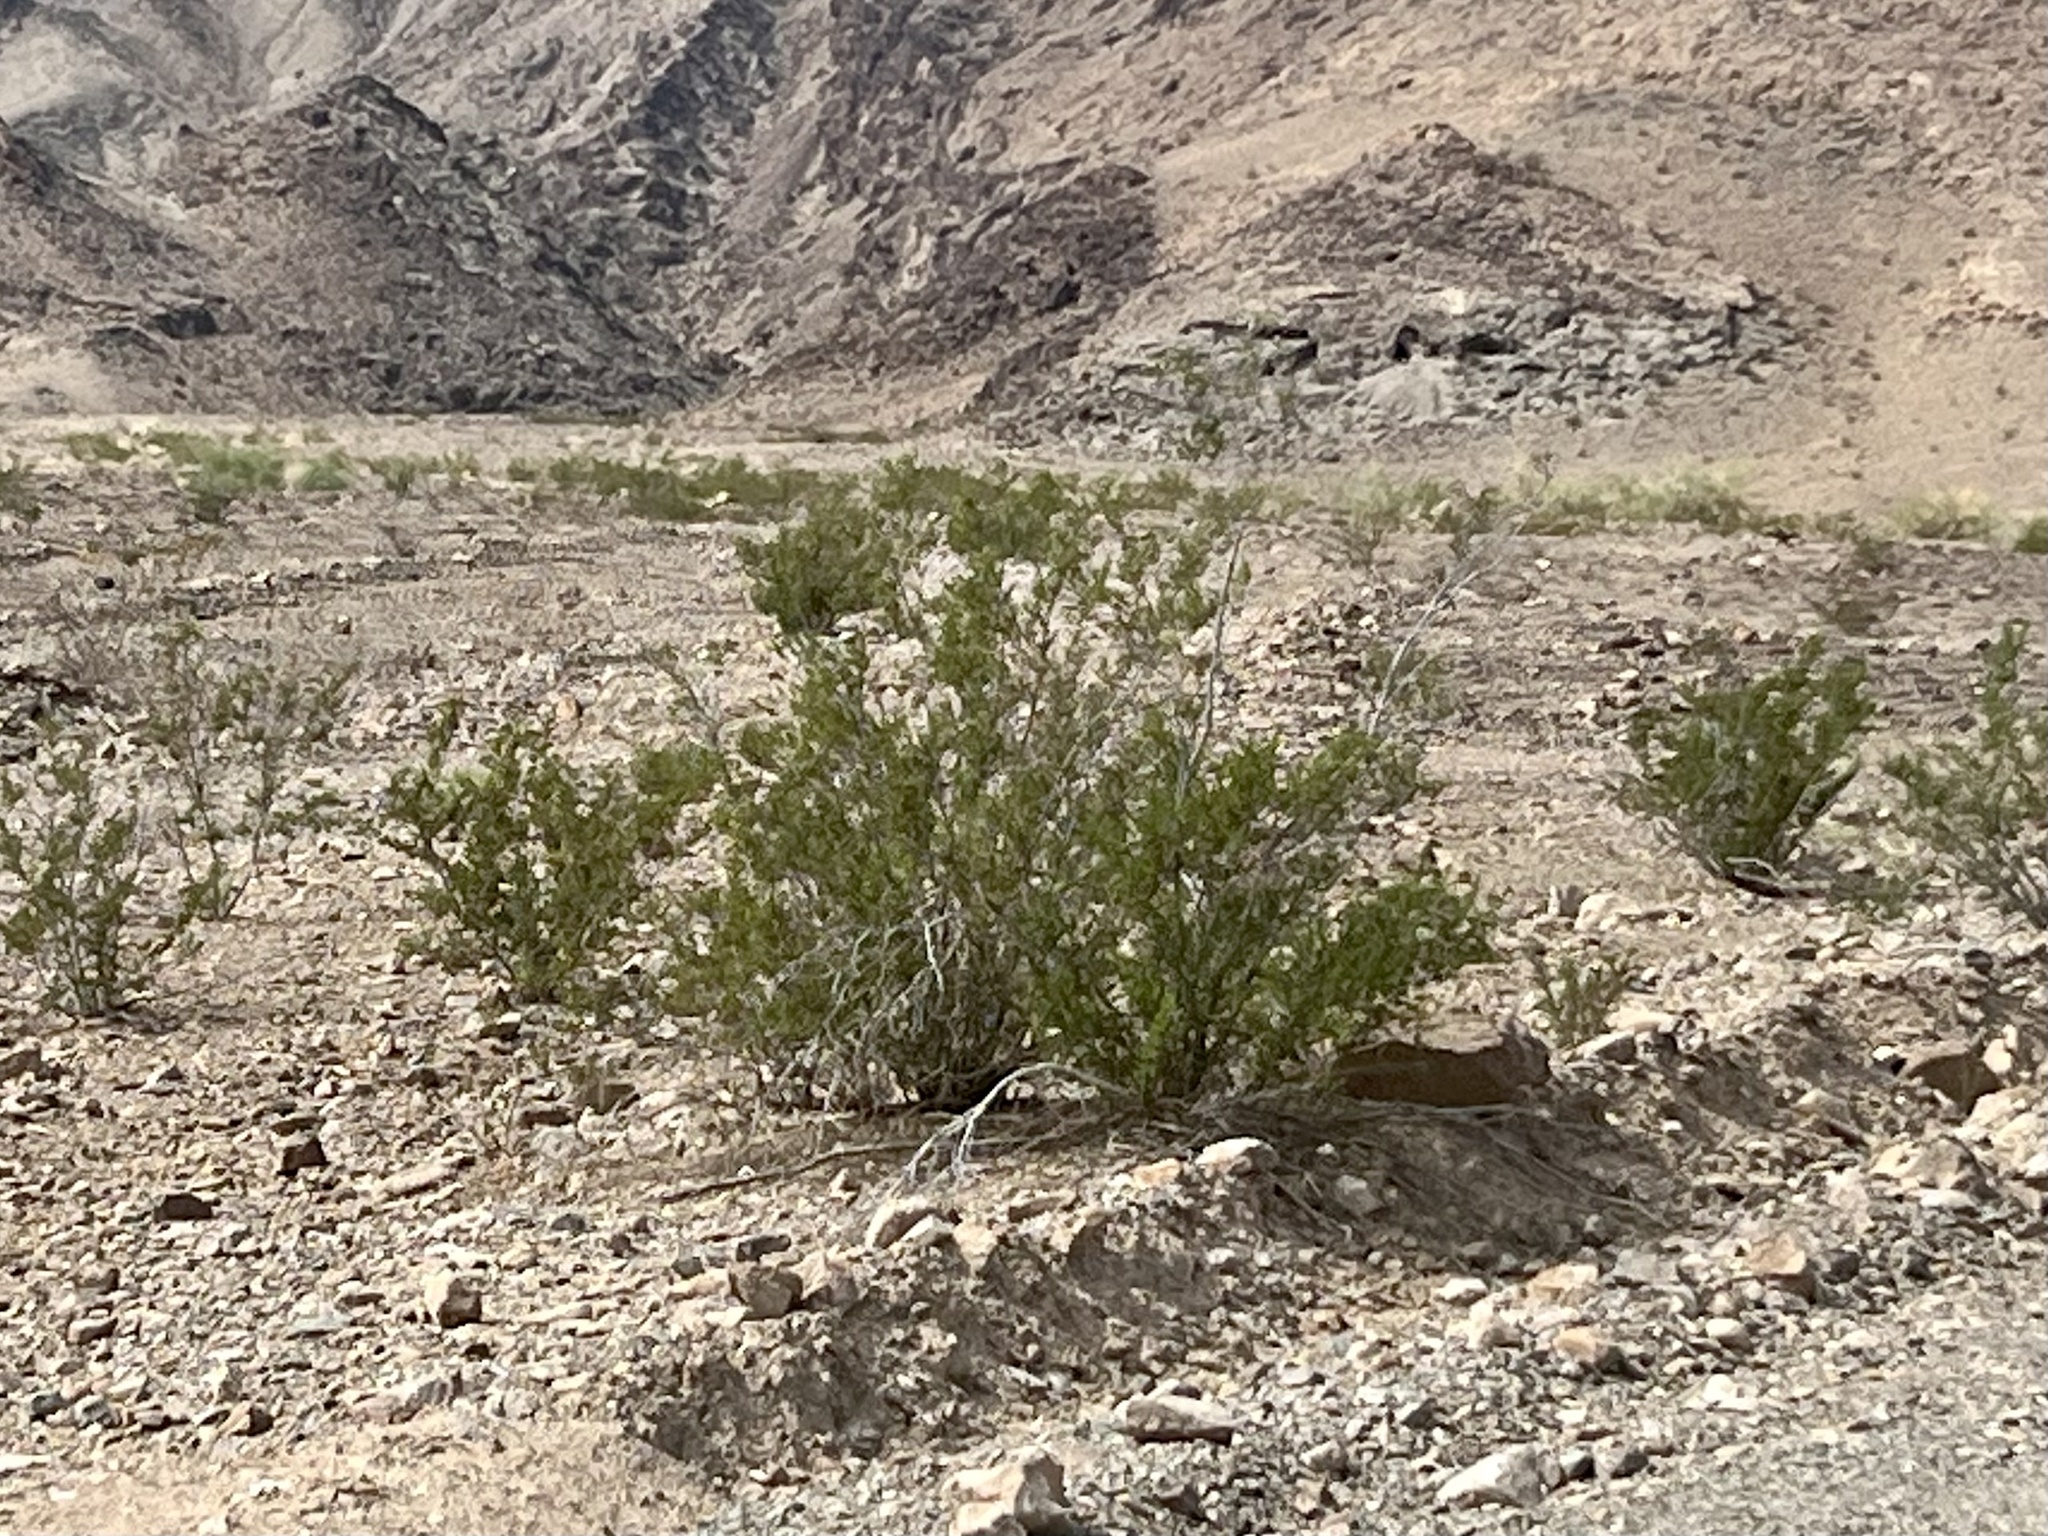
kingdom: Plantae
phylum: Tracheophyta
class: Magnoliopsida
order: Zygophyllales
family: Zygophyllaceae
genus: Larrea
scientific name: Larrea tridentata
